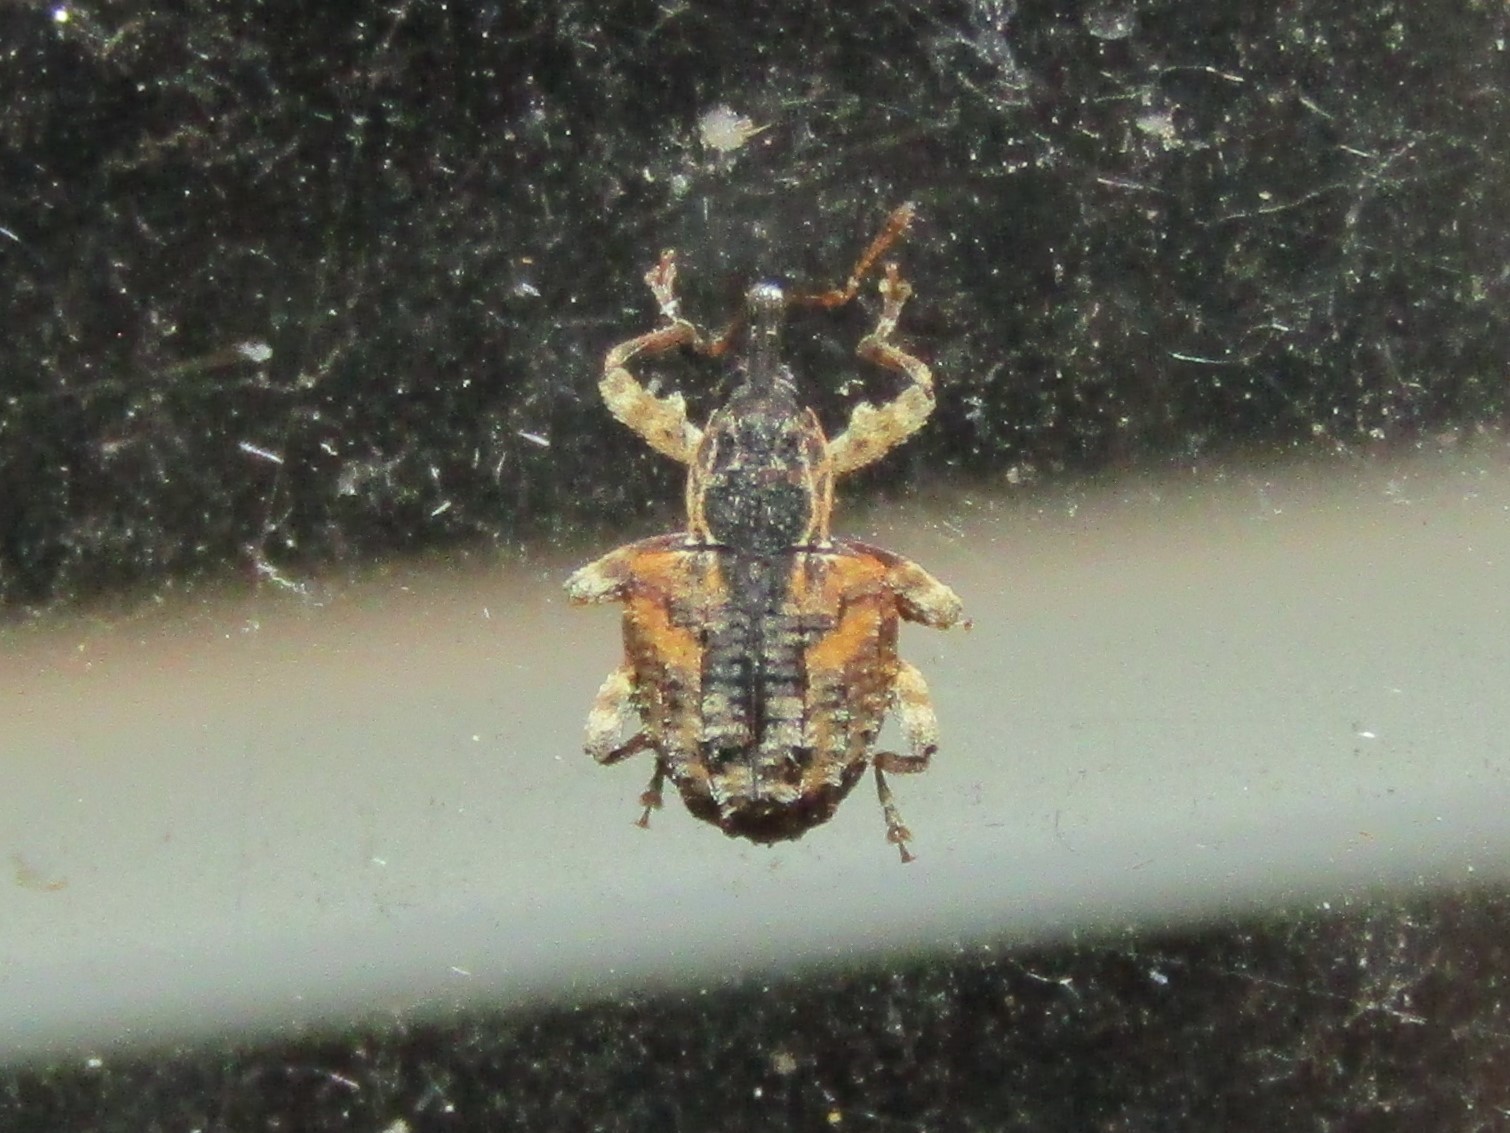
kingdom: Animalia
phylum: Arthropoda
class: Insecta
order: Coleoptera
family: Curculionidae
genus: Conotrachelus
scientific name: Conotrachelus anaglypticus
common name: Cambium curculio
